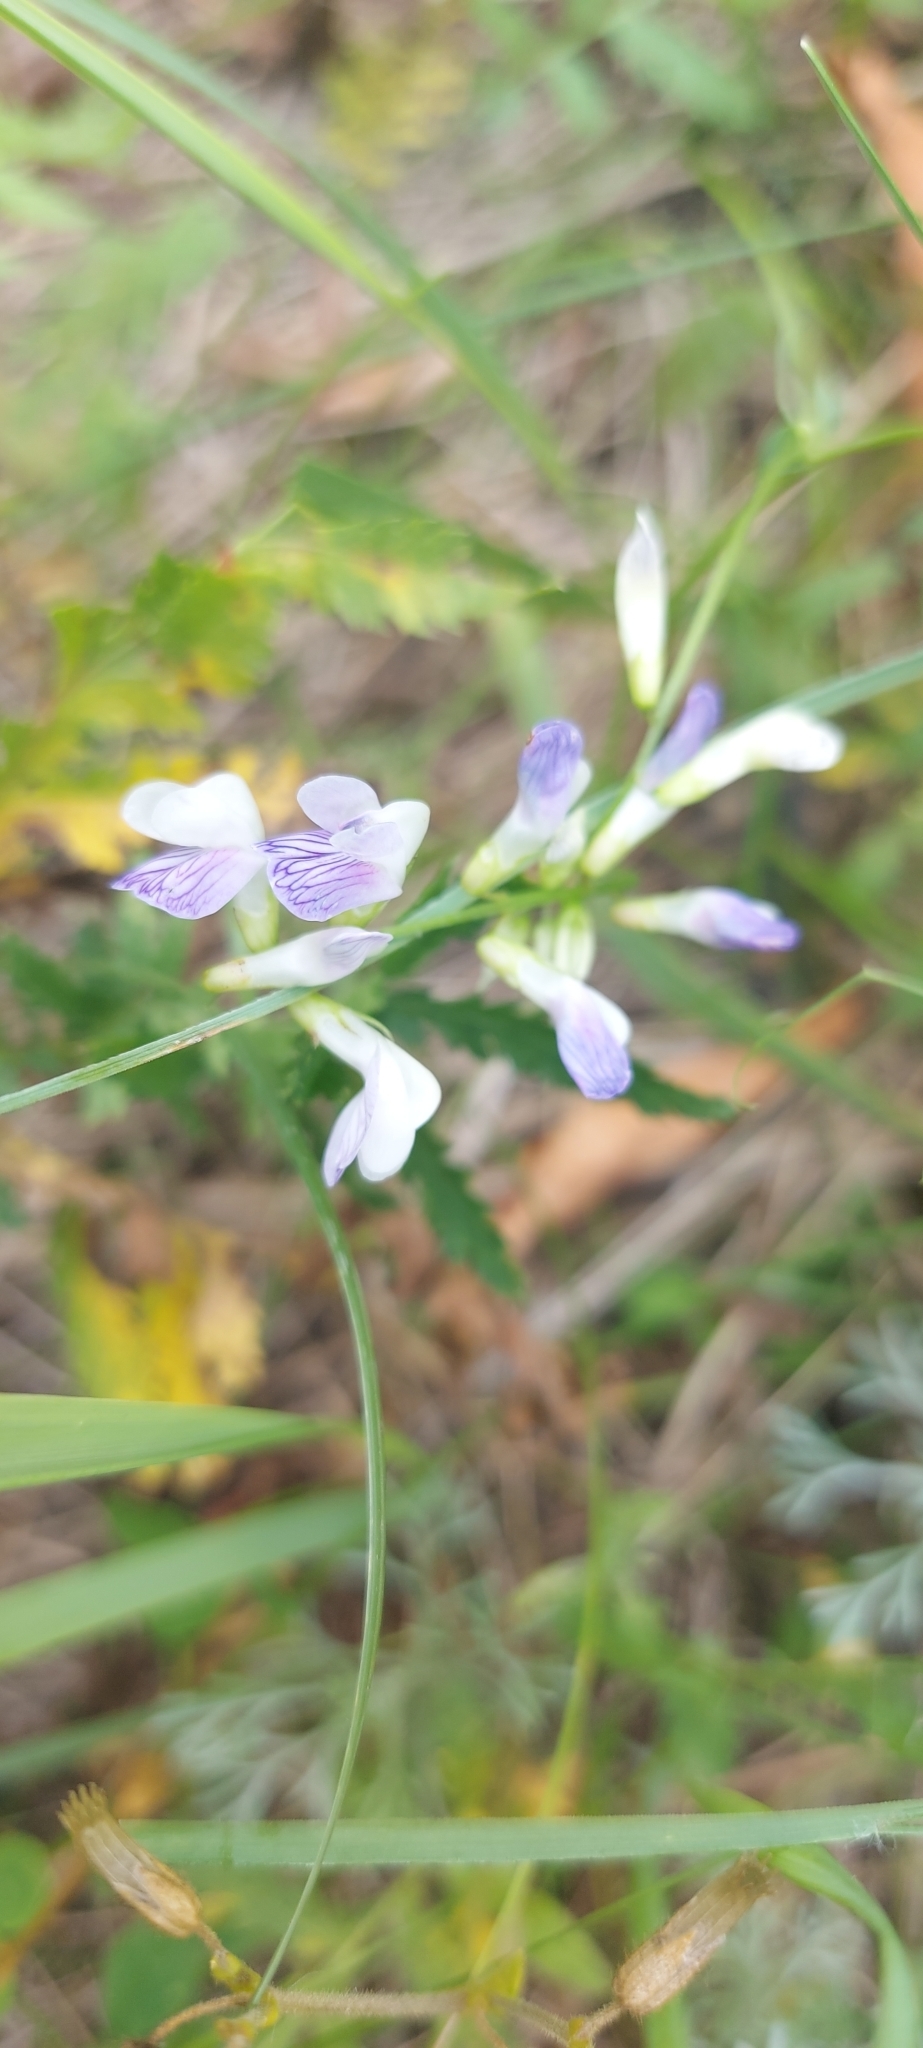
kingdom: Plantae
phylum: Tracheophyta
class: Magnoliopsida
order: Fabales
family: Fabaceae
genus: Vicia
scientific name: Vicia biennis
